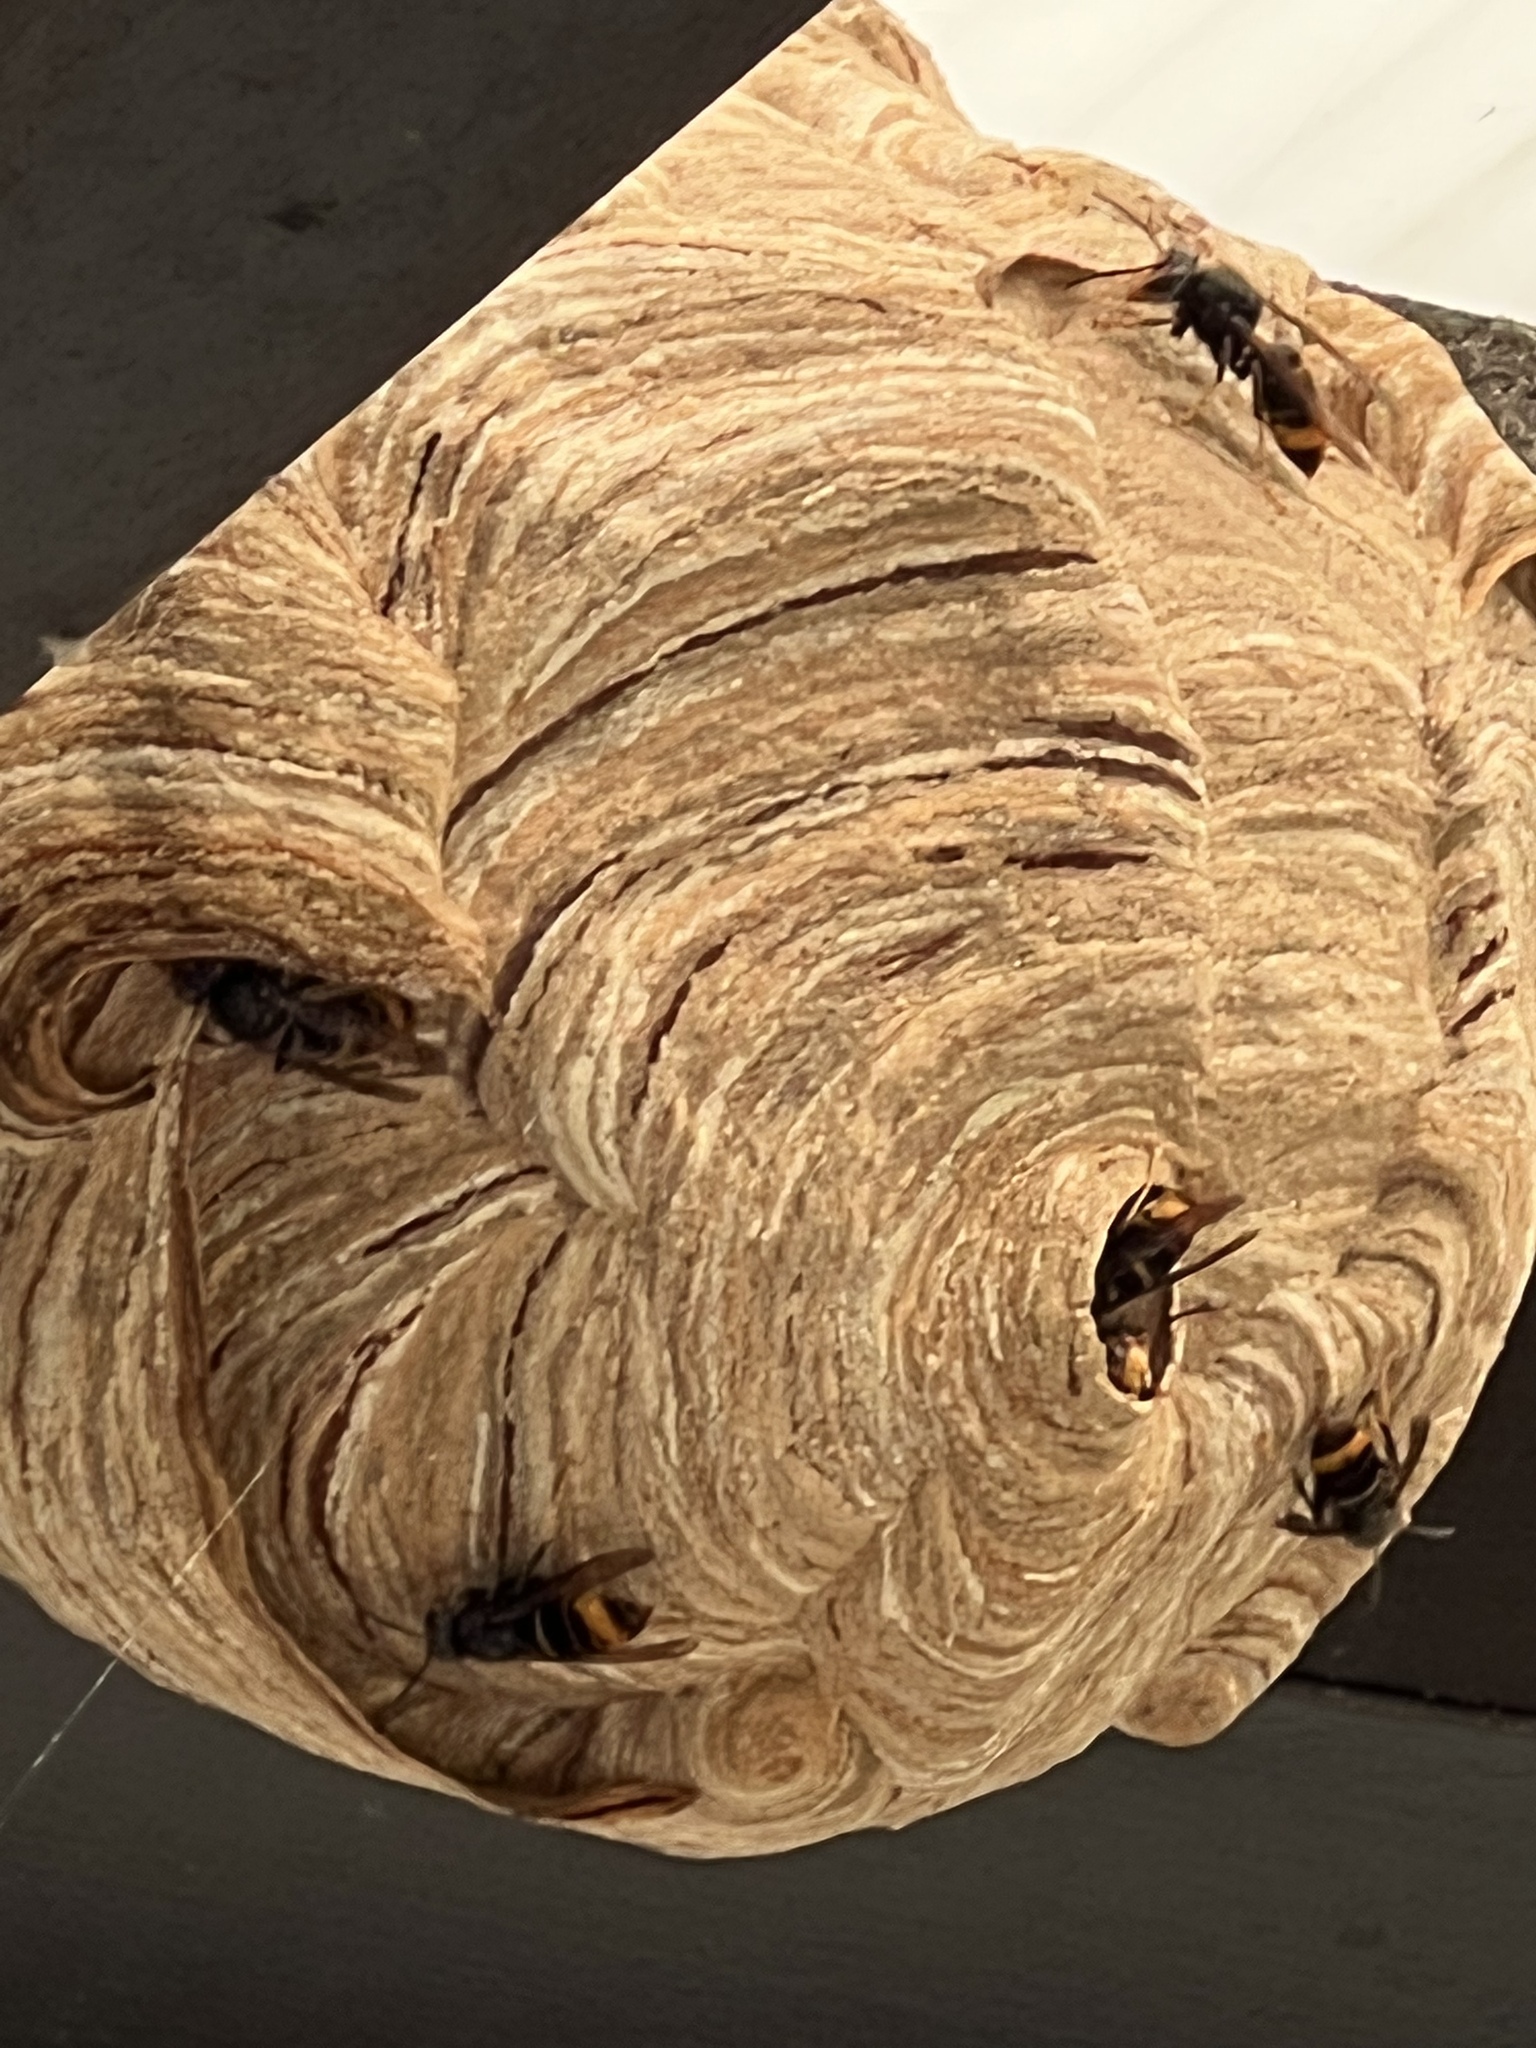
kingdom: Animalia
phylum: Arthropoda
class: Insecta
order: Hymenoptera
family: Vespidae
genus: Vespa
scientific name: Vespa velutina
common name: Asian hornet
